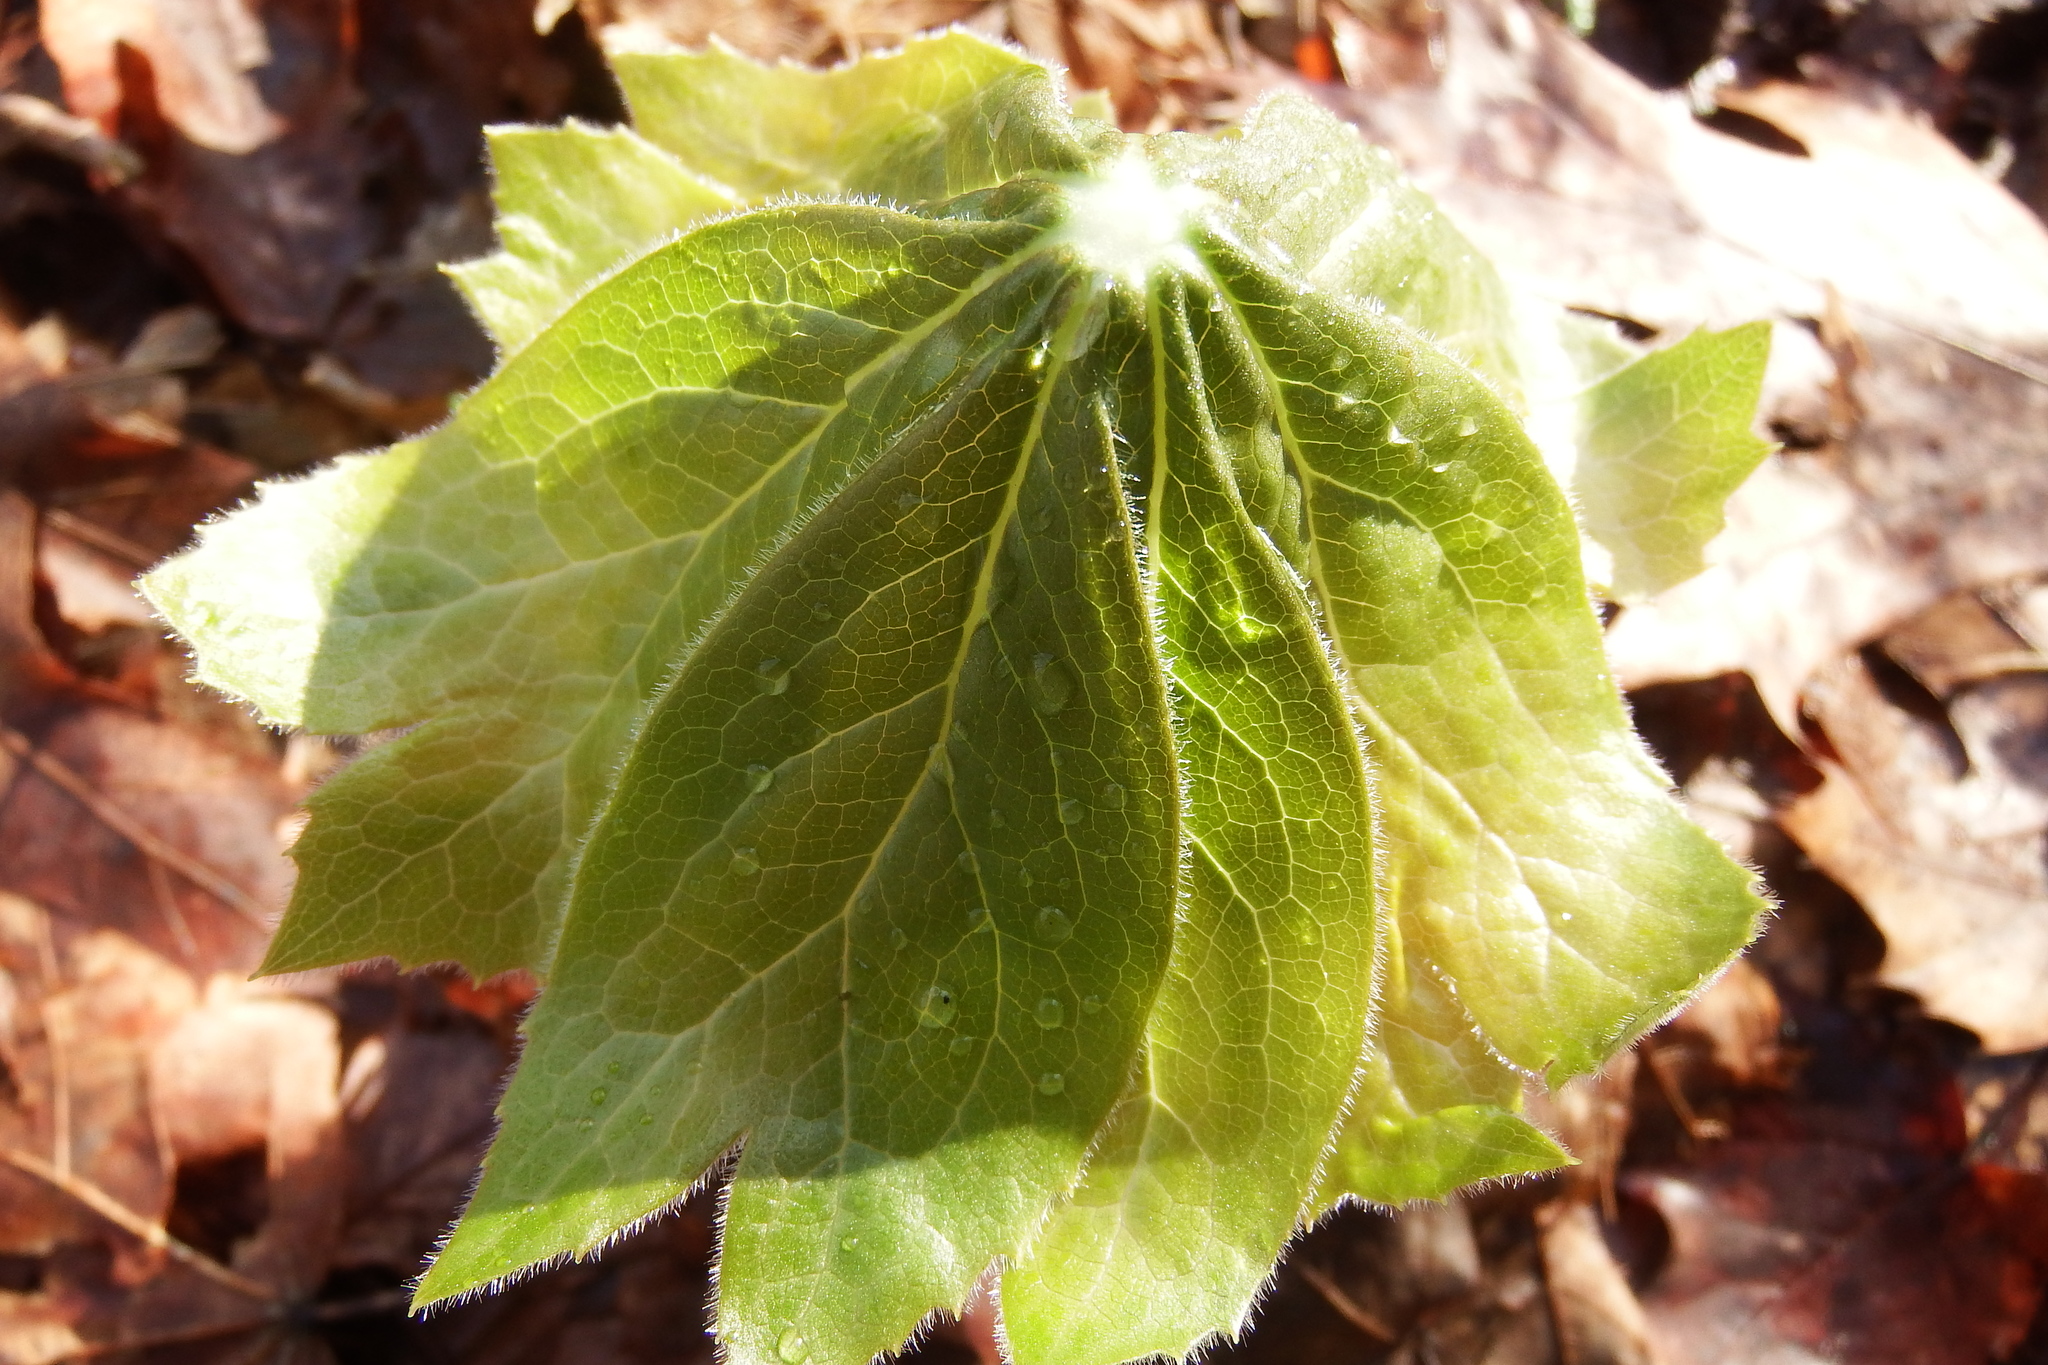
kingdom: Plantae
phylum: Tracheophyta
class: Magnoliopsida
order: Ranunculales
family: Berberidaceae
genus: Podophyllum
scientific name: Podophyllum peltatum
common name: Wild mandrake
